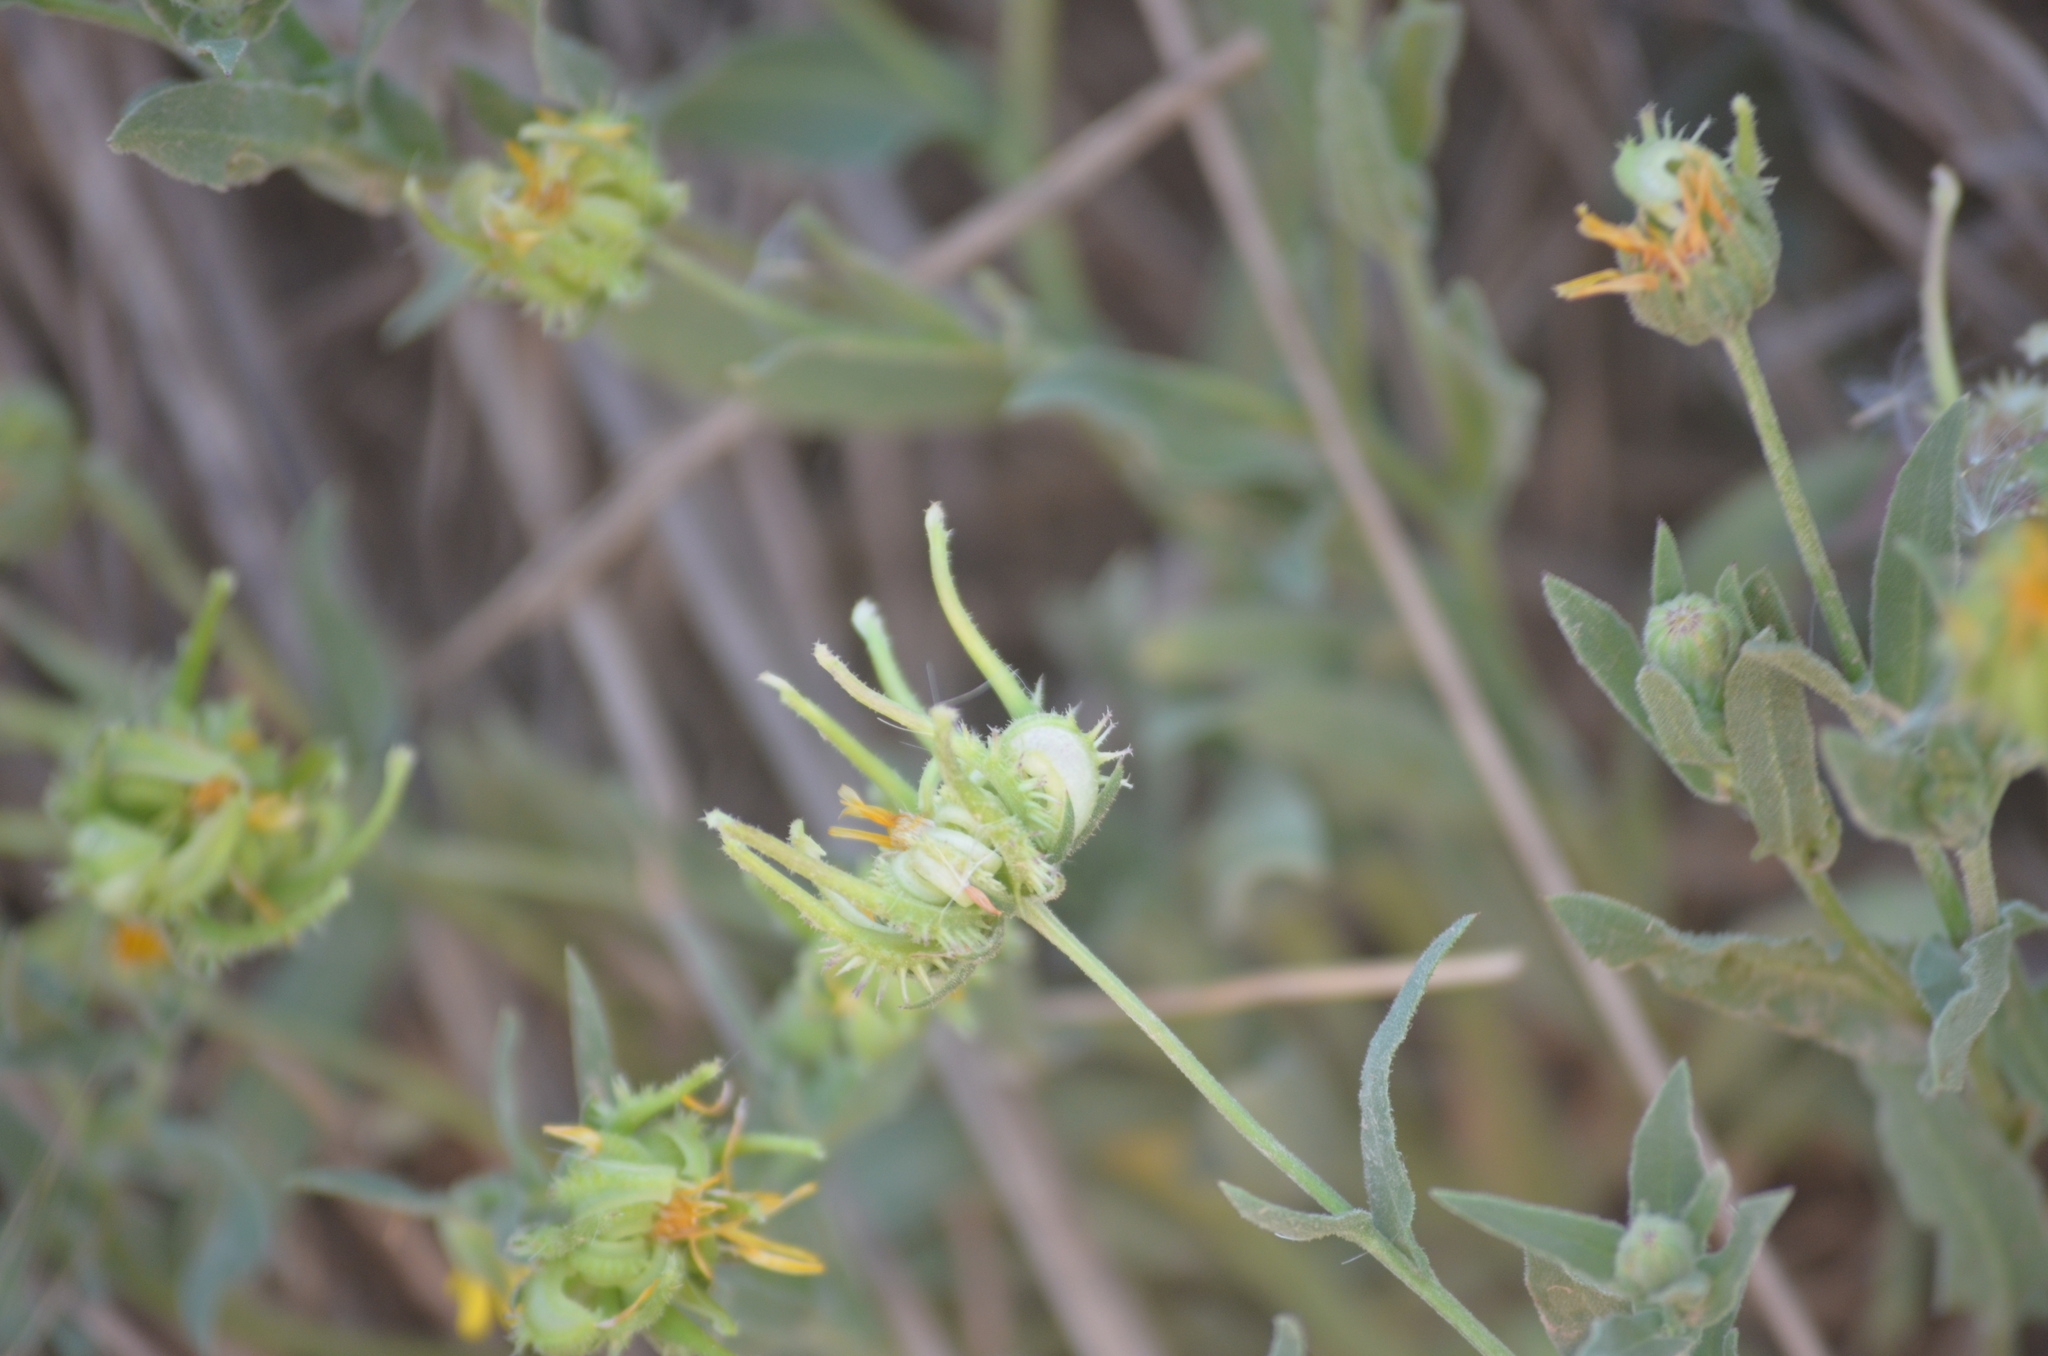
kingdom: Plantae
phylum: Tracheophyta
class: Magnoliopsida
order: Asterales
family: Asteraceae
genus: Calendula
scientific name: Calendula arvensis
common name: Field marigold
